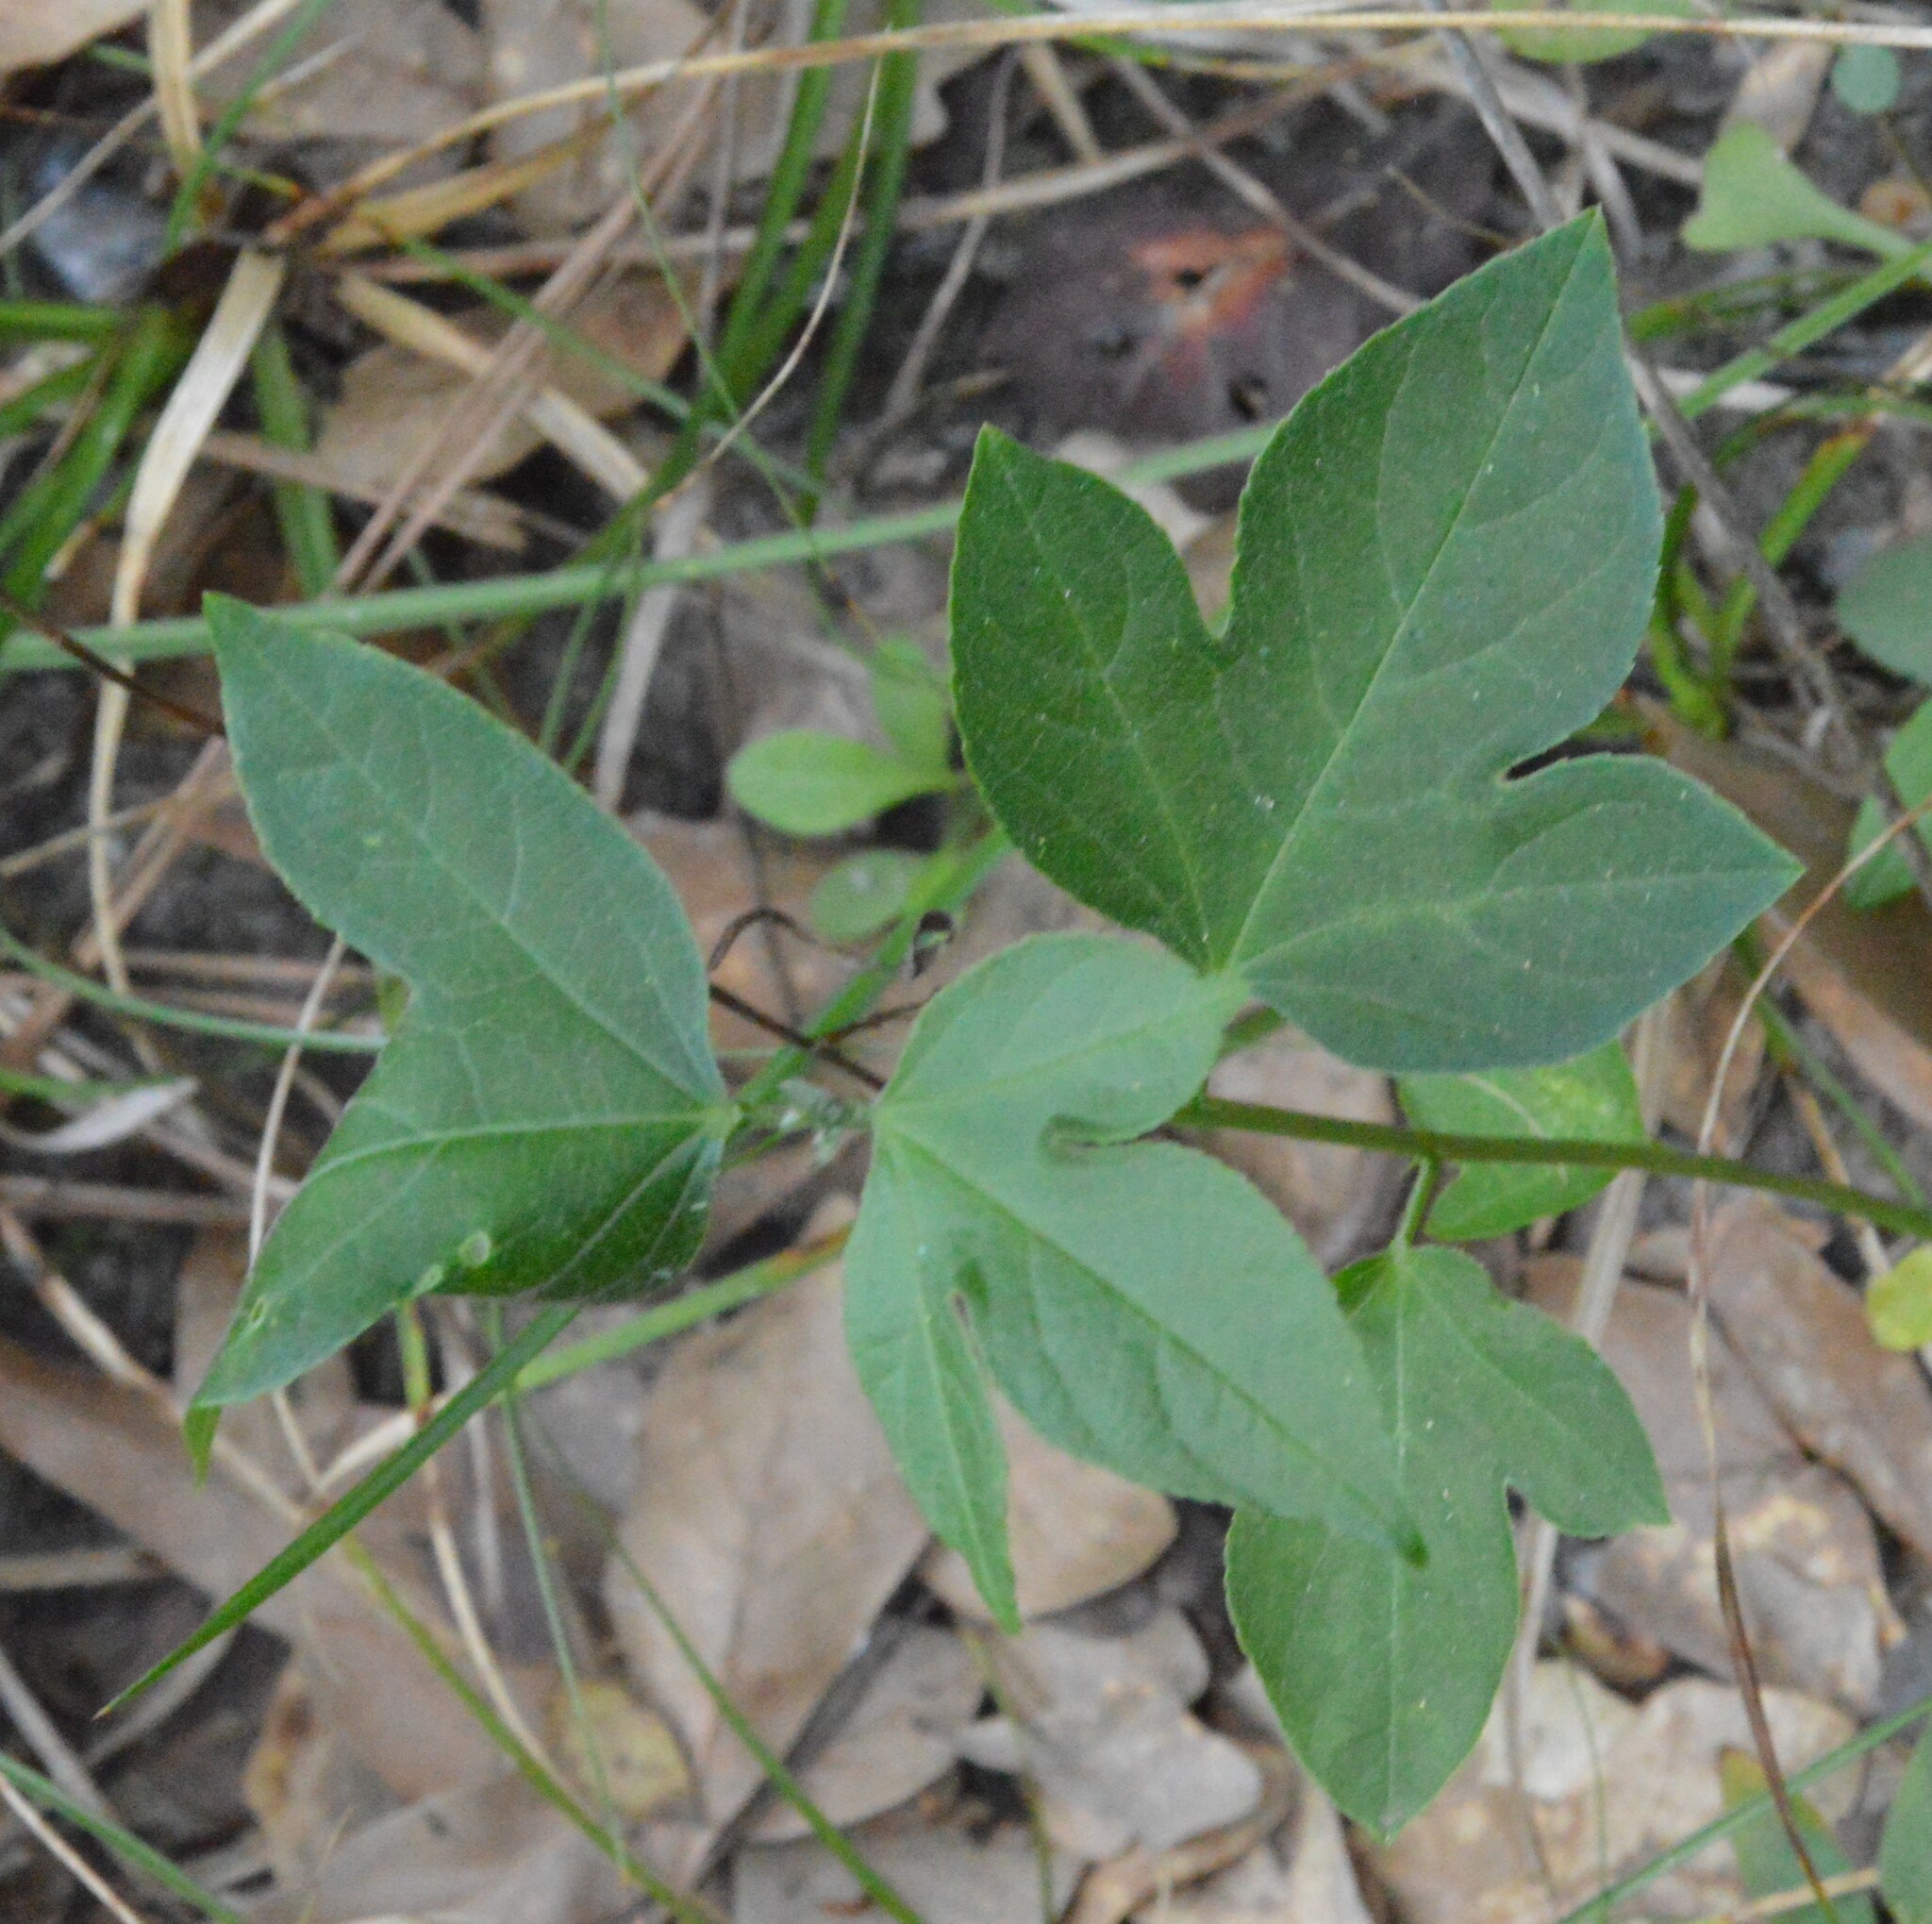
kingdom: Plantae
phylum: Tracheophyta
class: Magnoliopsida
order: Malpighiales
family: Passifloraceae
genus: Passiflora
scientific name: Passiflora incarnata
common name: Apricot-vine
